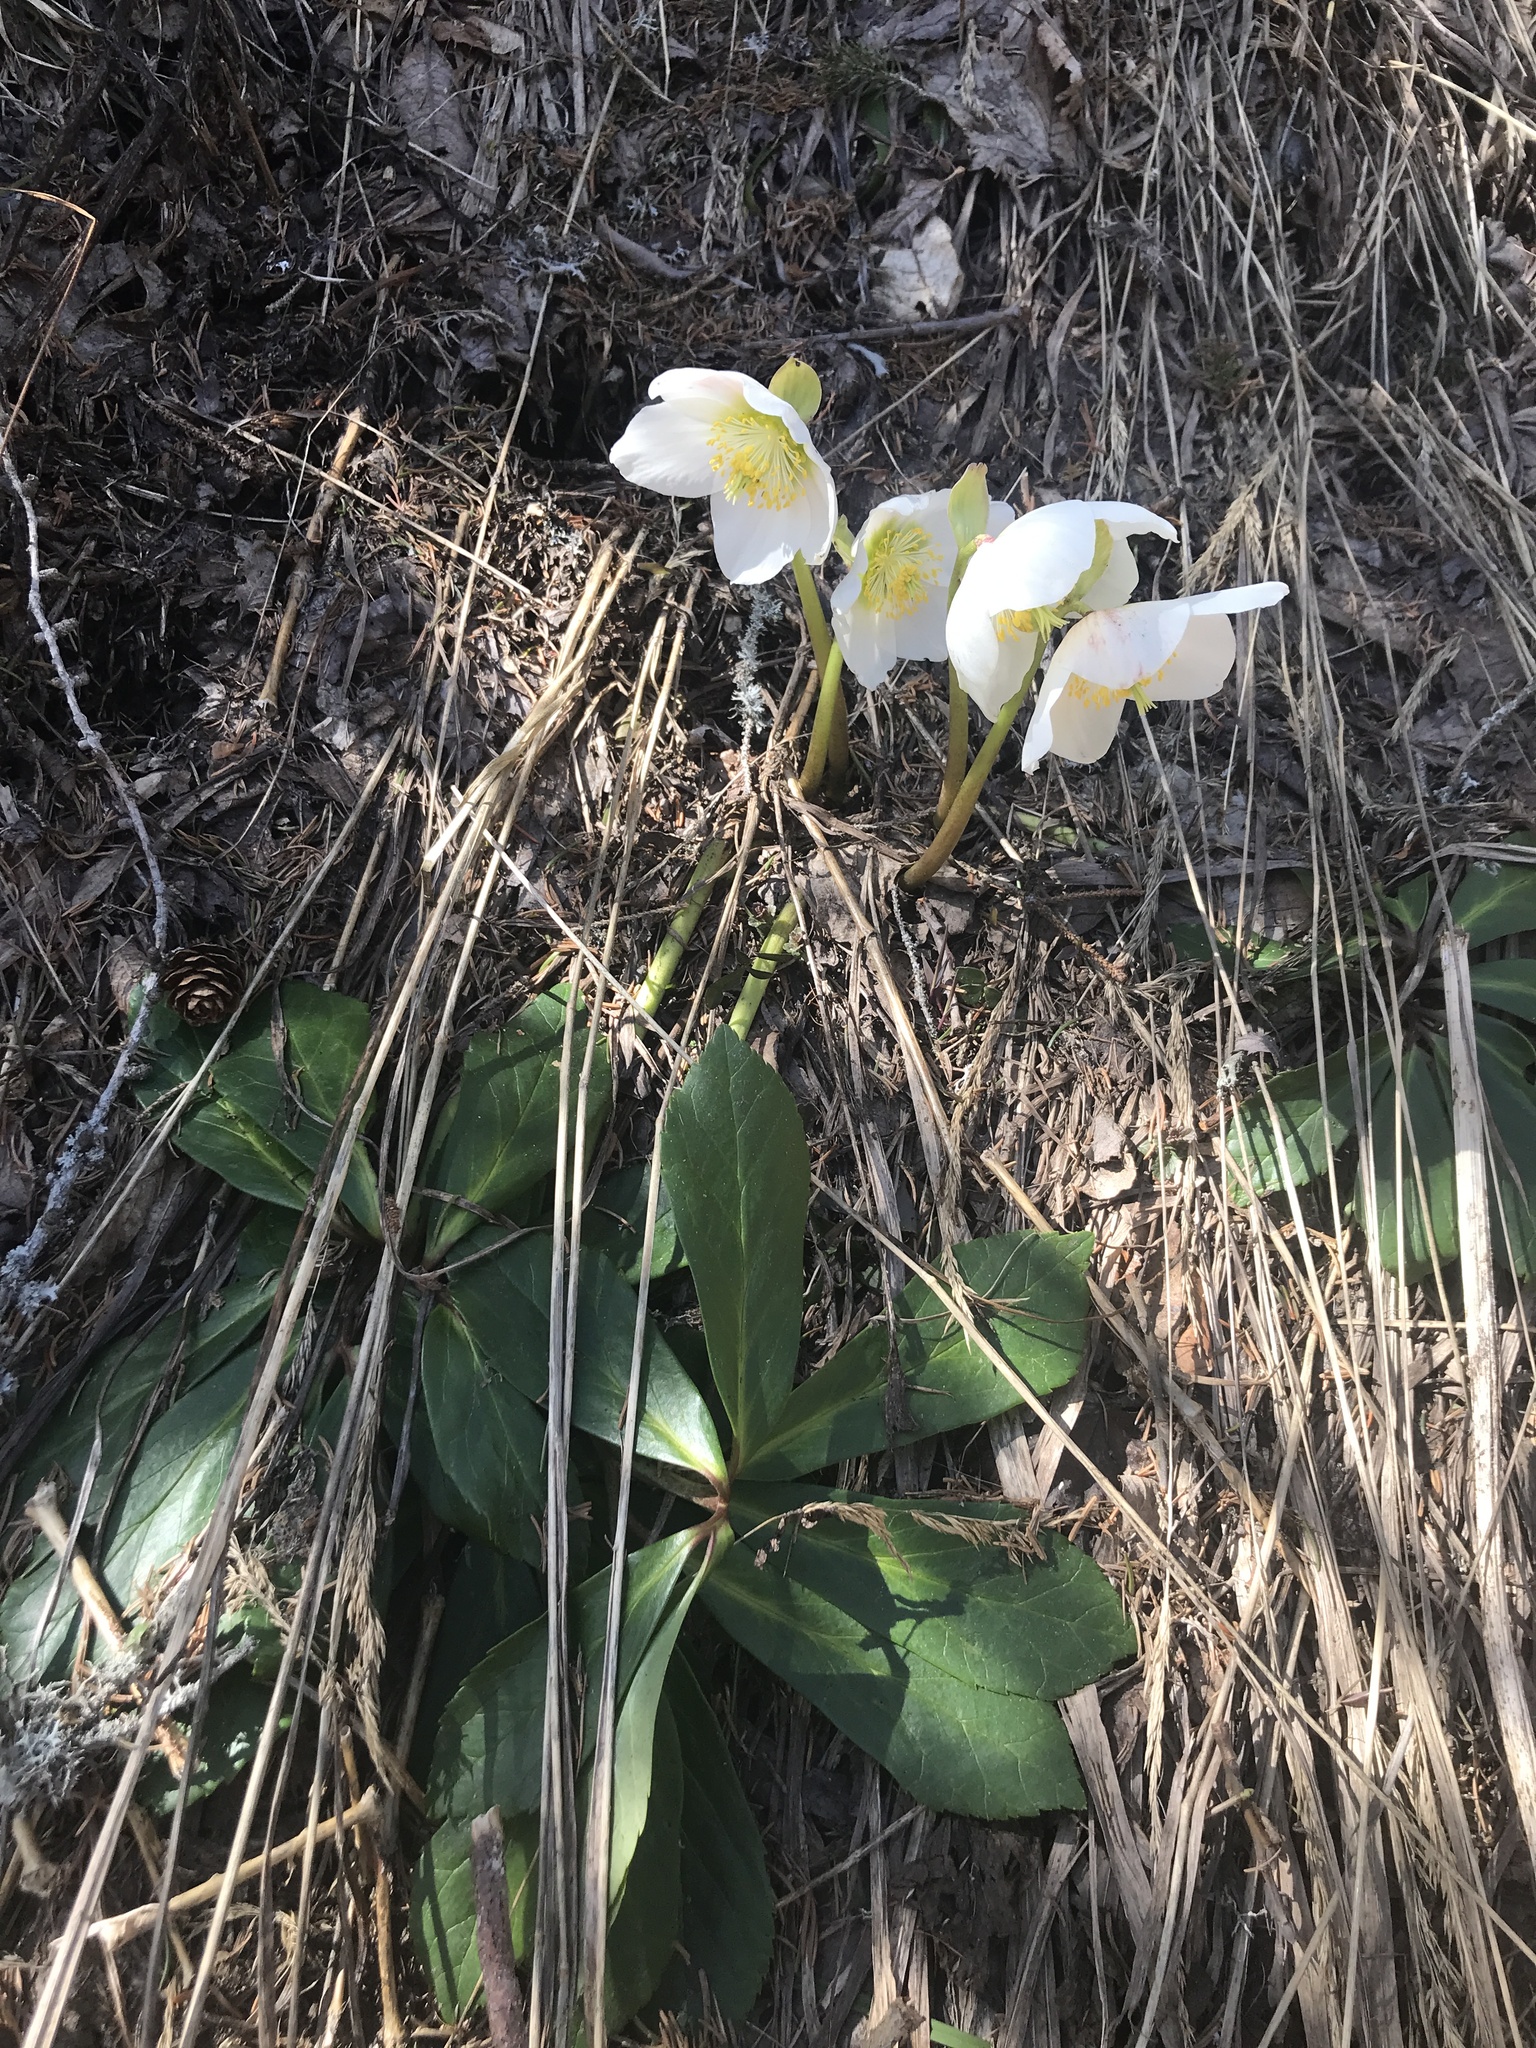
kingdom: Plantae
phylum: Tracheophyta
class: Magnoliopsida
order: Ranunculales
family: Ranunculaceae
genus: Helleborus
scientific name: Helleborus niger
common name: Black hellebore
